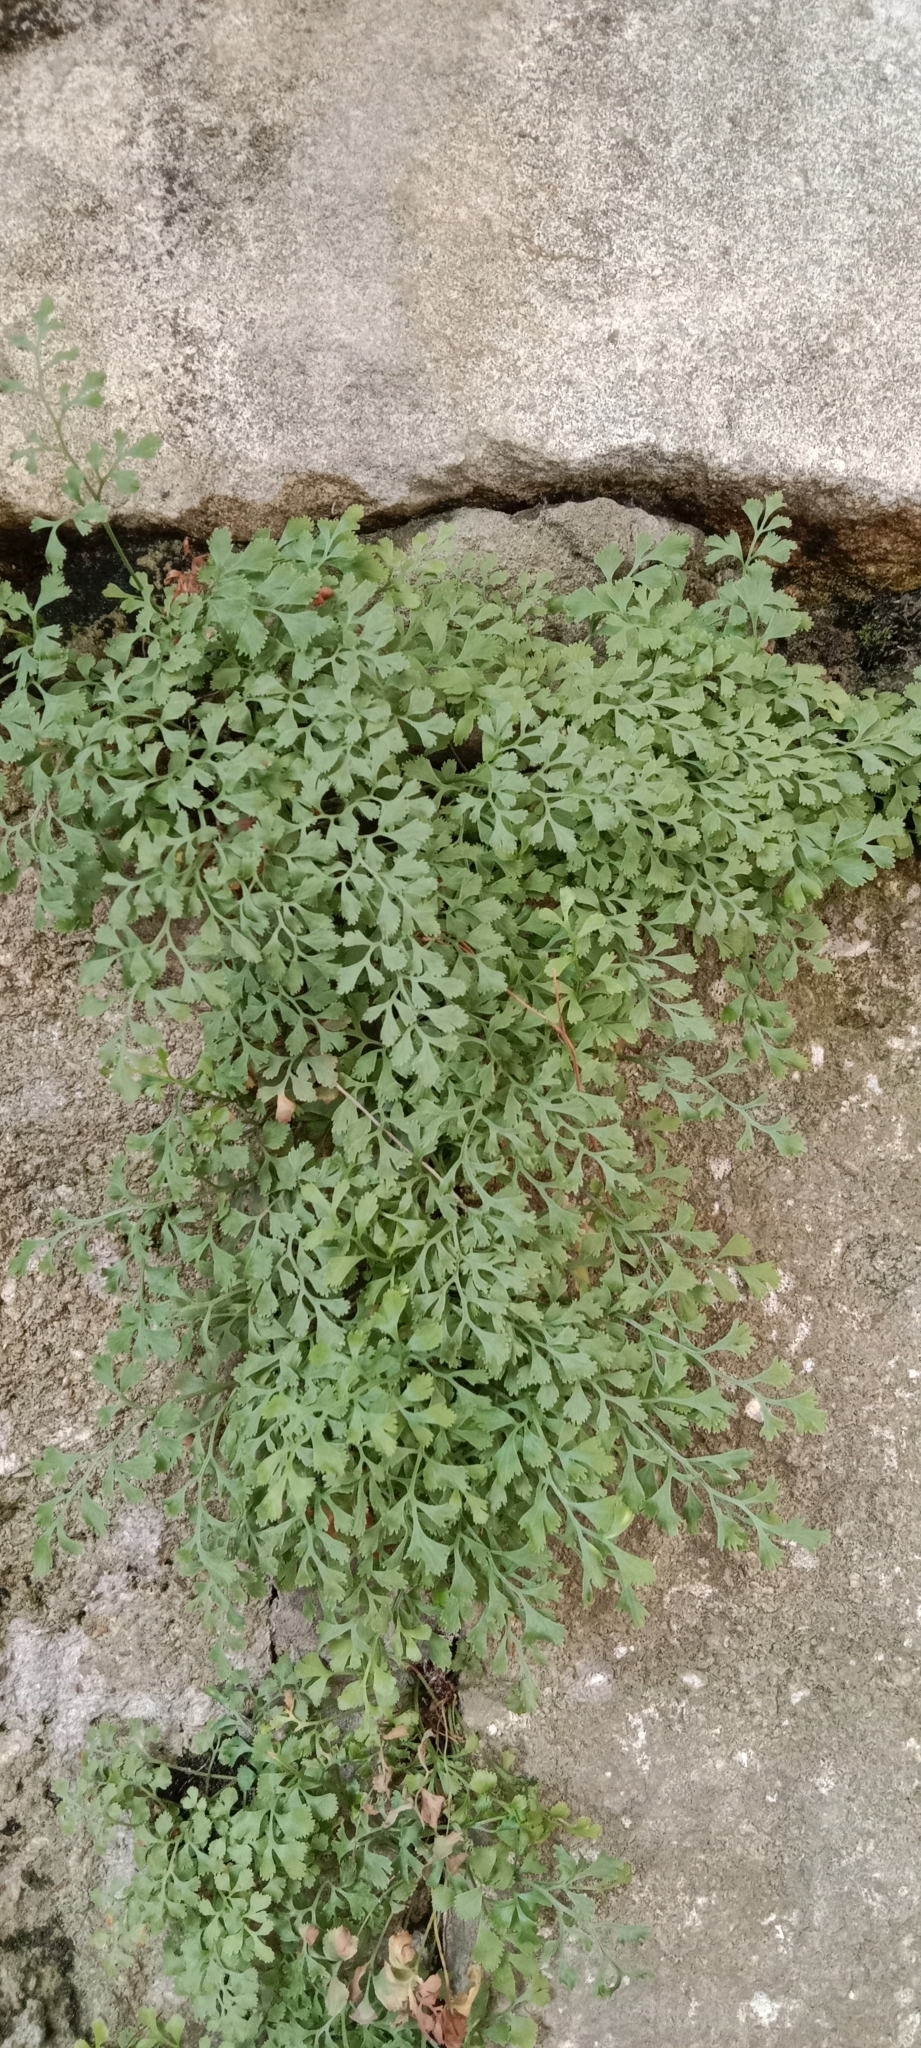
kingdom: Plantae
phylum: Tracheophyta
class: Polypodiopsida
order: Polypodiales
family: Aspleniaceae
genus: Asplenium
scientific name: Asplenium ruta-muraria
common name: Wall-rue
